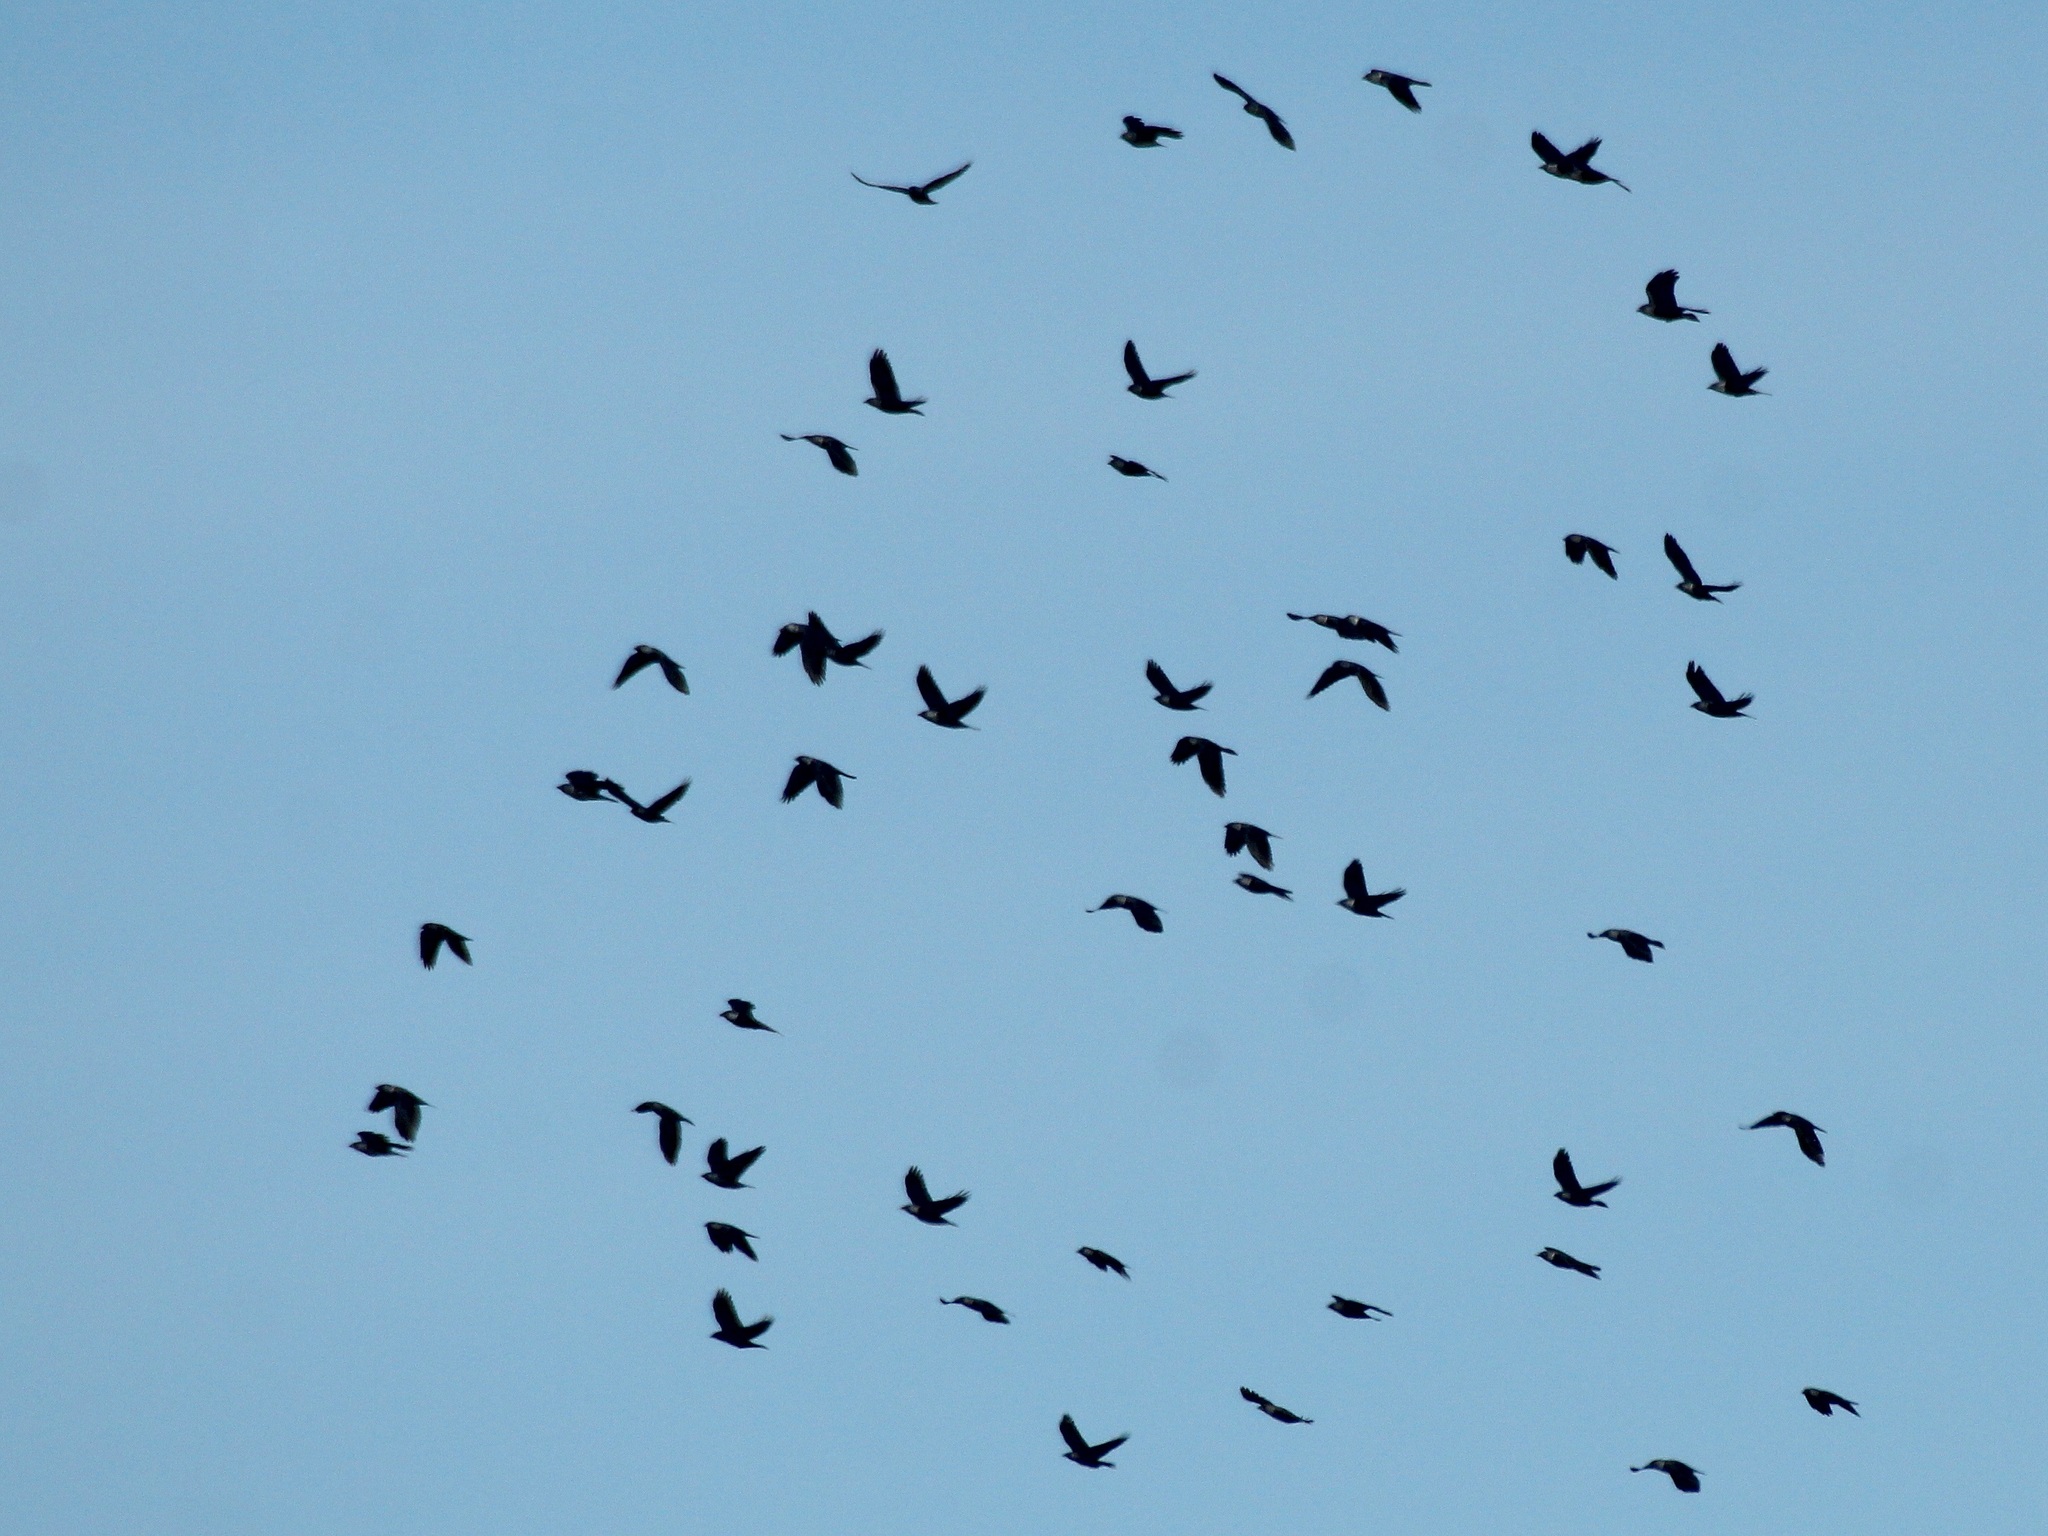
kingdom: Animalia
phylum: Chordata
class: Aves
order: Passeriformes
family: Corvidae
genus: Coloeus
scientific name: Coloeus monedula
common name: Western jackdaw
